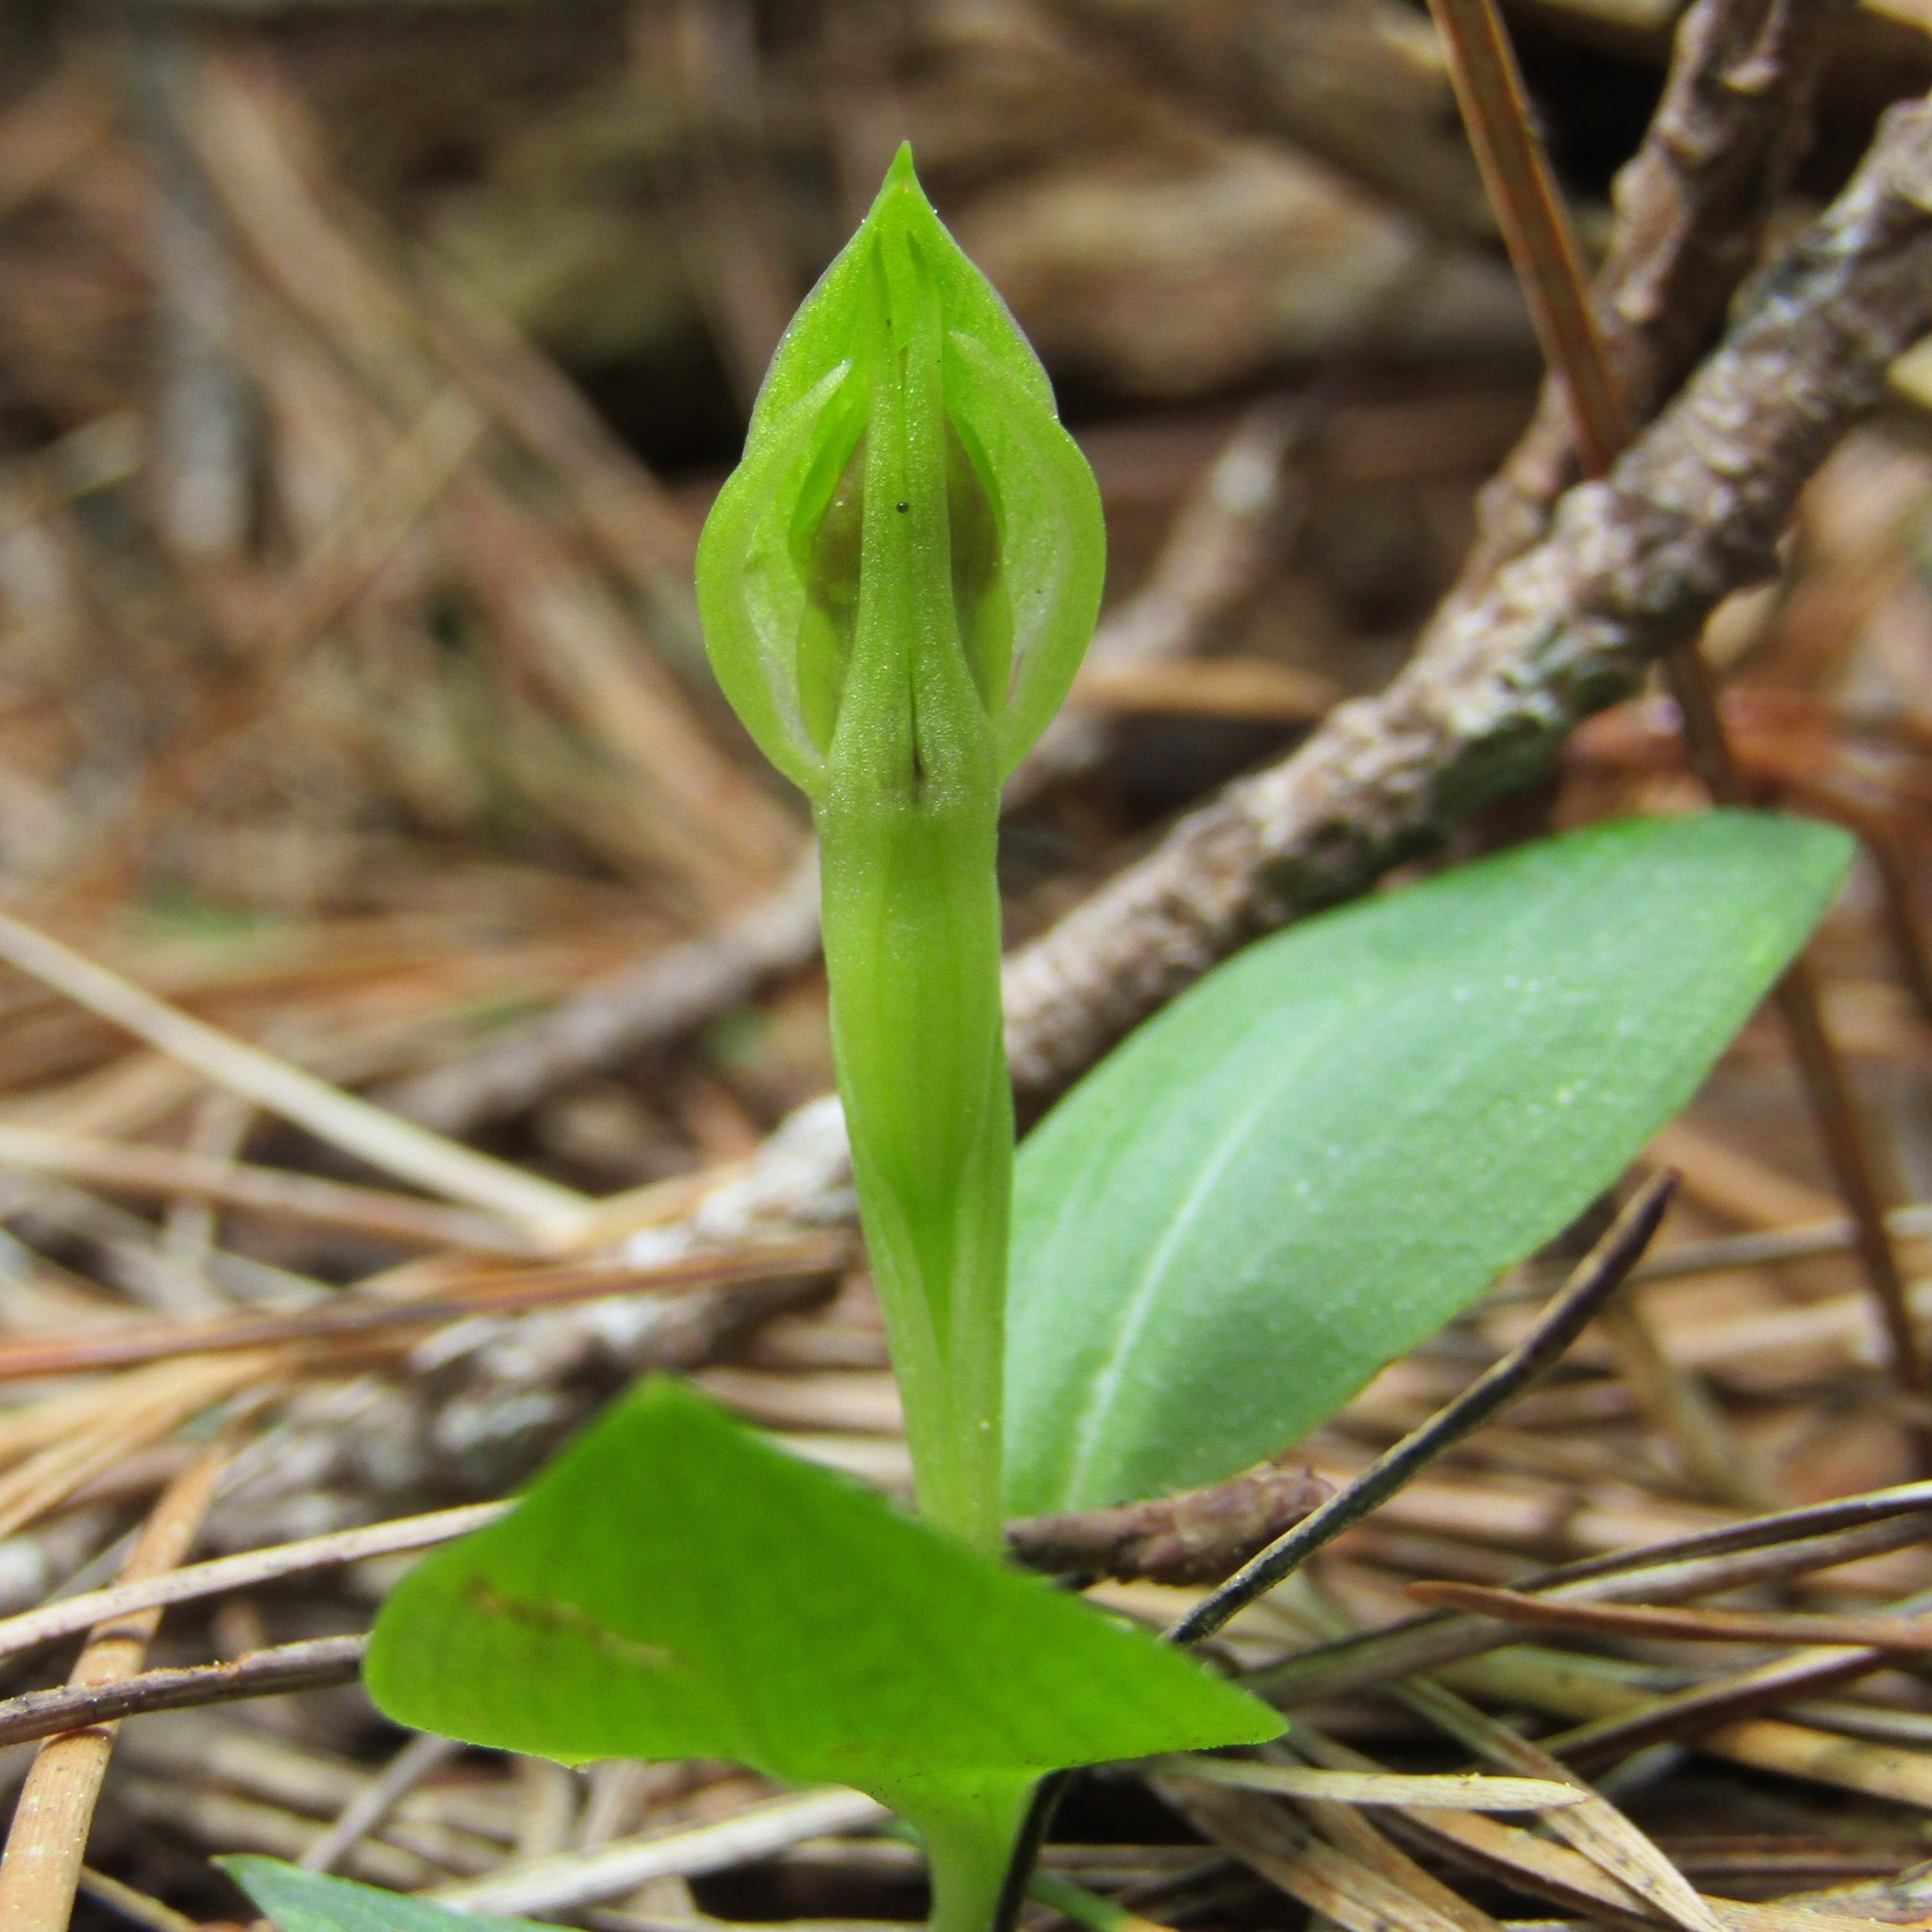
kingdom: Plantae
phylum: Tracheophyta
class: Liliopsida
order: Asparagales
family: Orchidaceae
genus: Chiloglottis
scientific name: Chiloglottis cornuta
